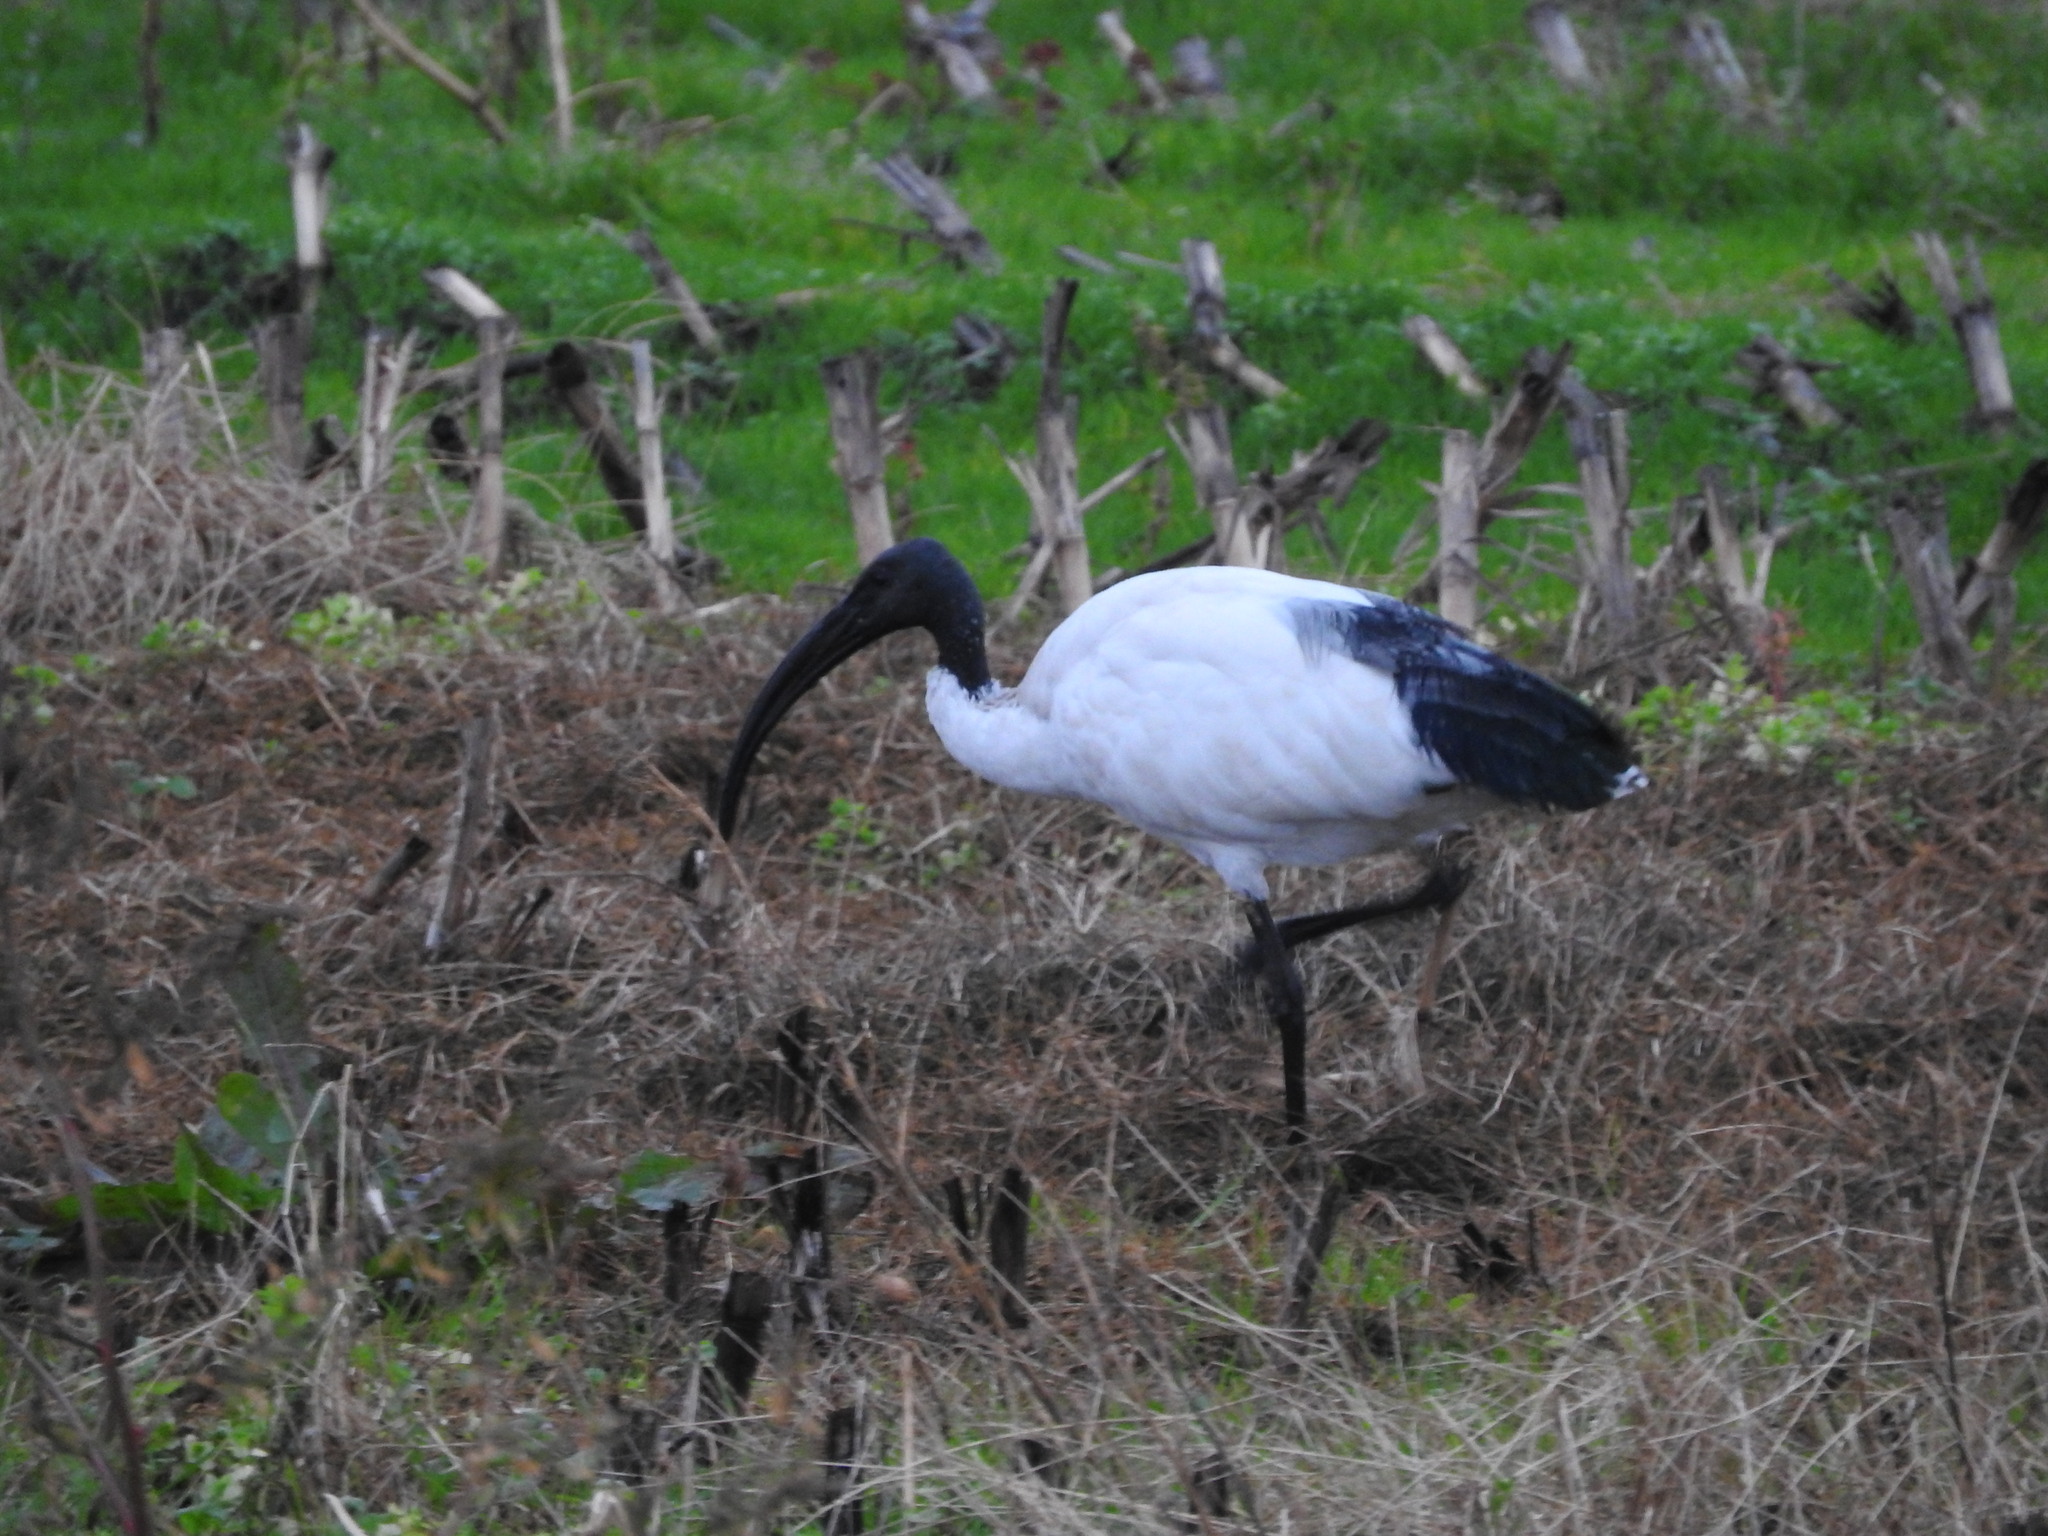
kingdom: Animalia
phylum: Chordata
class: Aves
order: Pelecaniformes
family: Threskiornithidae
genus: Threskiornis
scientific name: Threskiornis aethiopicus
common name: Sacred ibis
